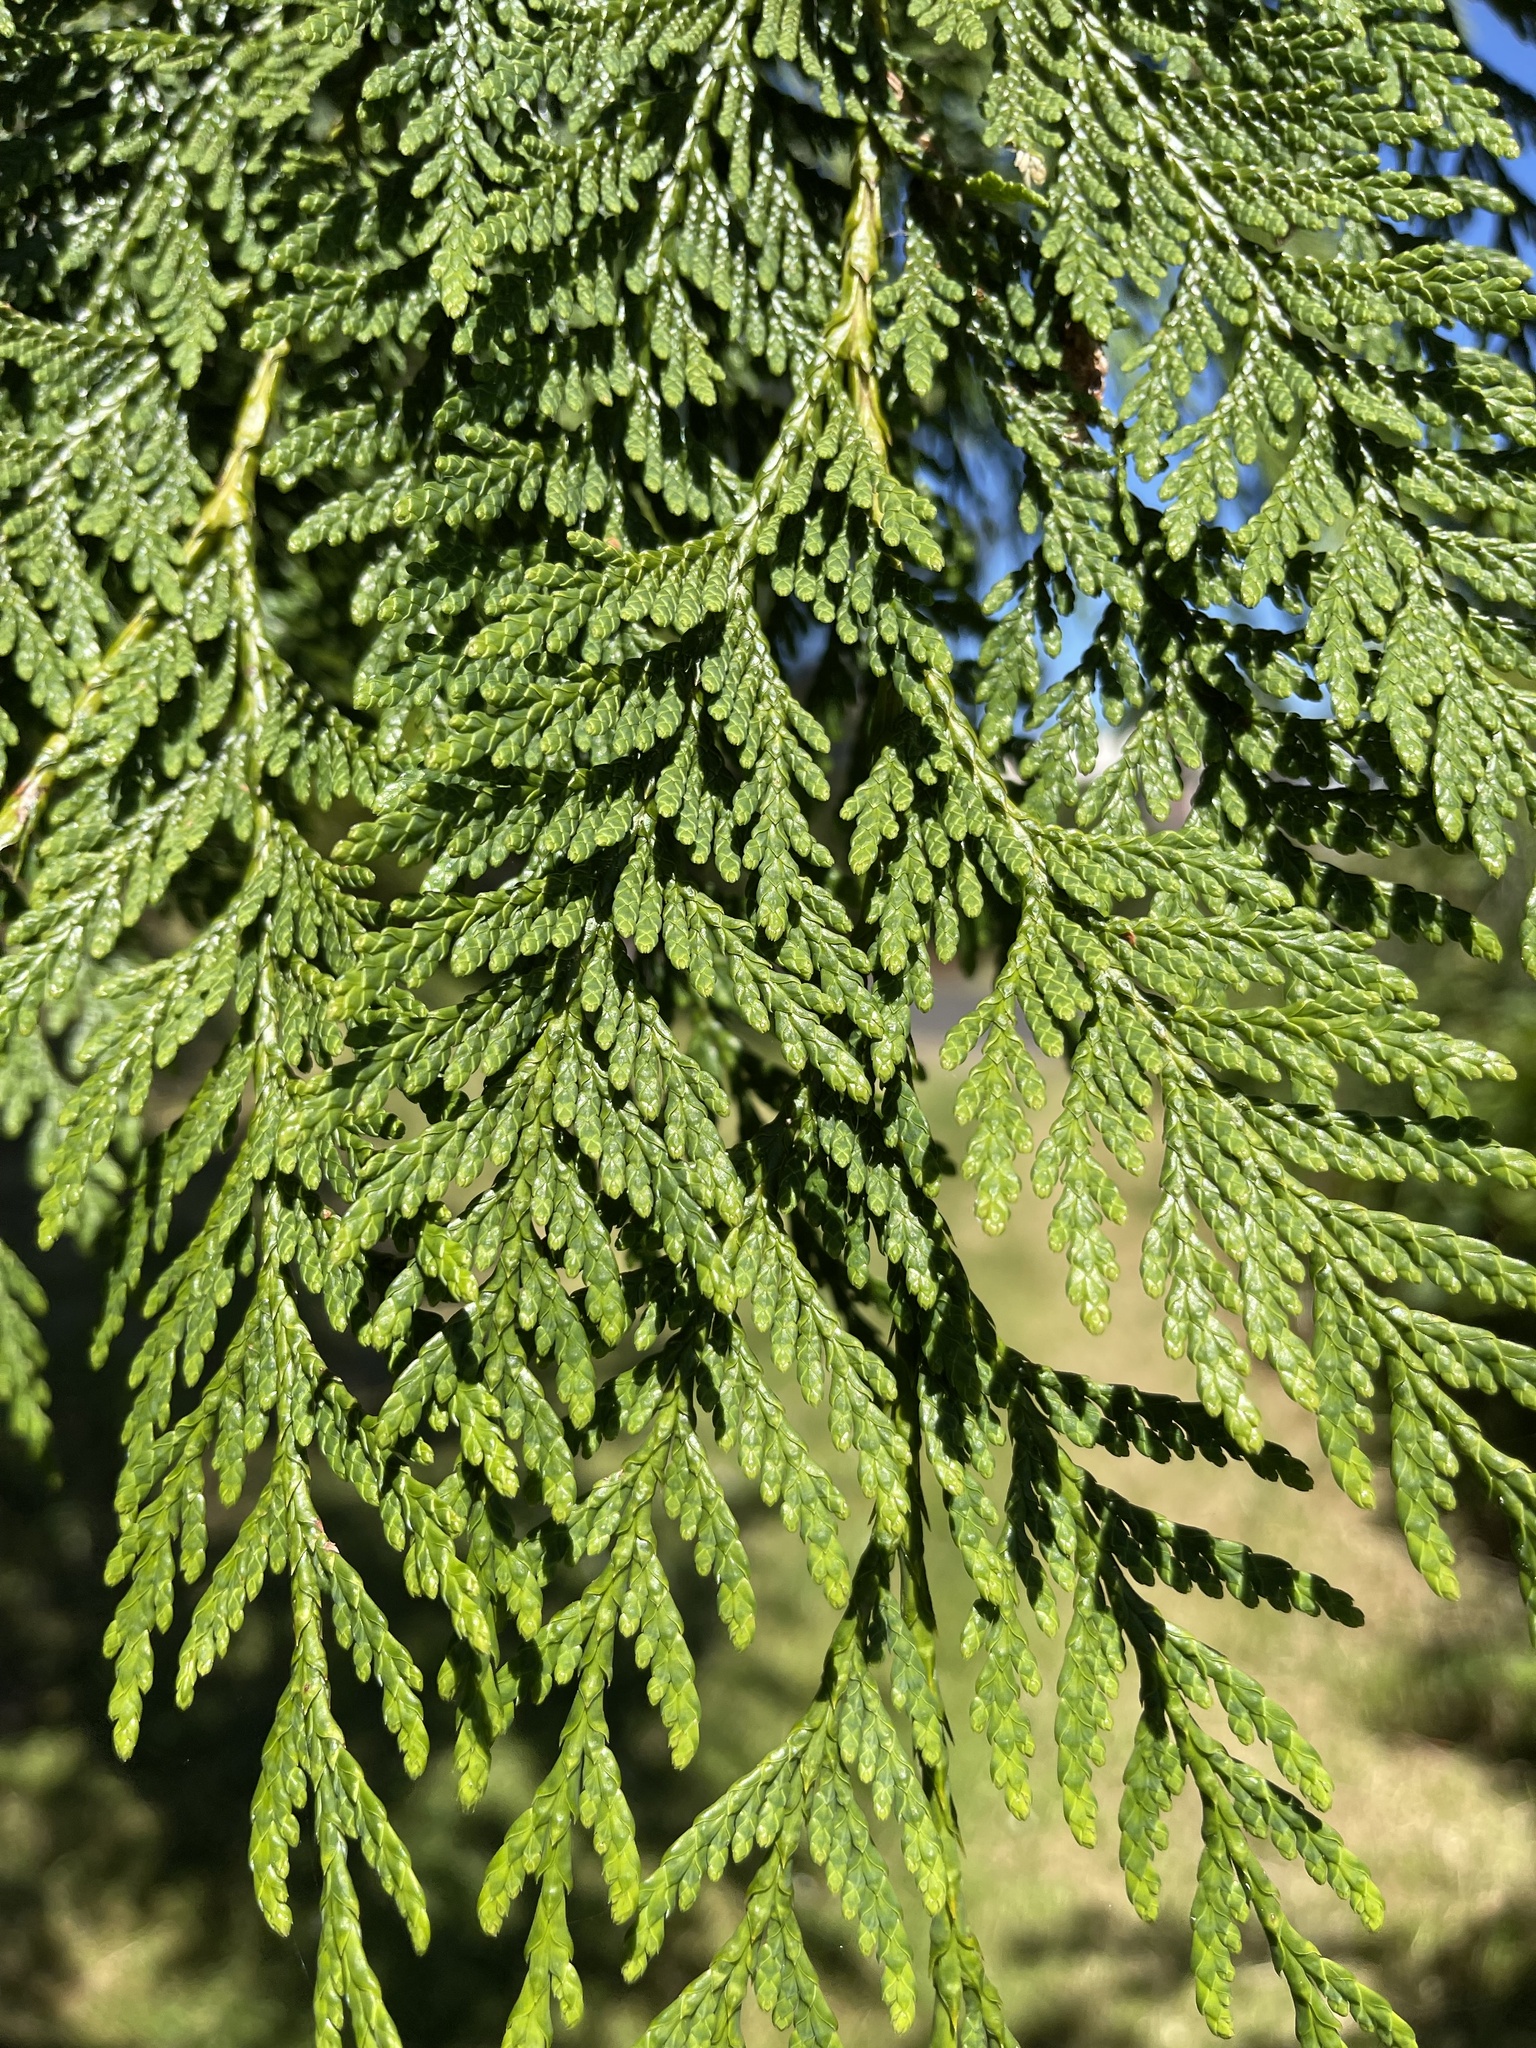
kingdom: Plantae
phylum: Tracheophyta
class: Pinopsida
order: Pinales
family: Cupressaceae
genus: Thuja
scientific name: Thuja plicata
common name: Western red-cedar
